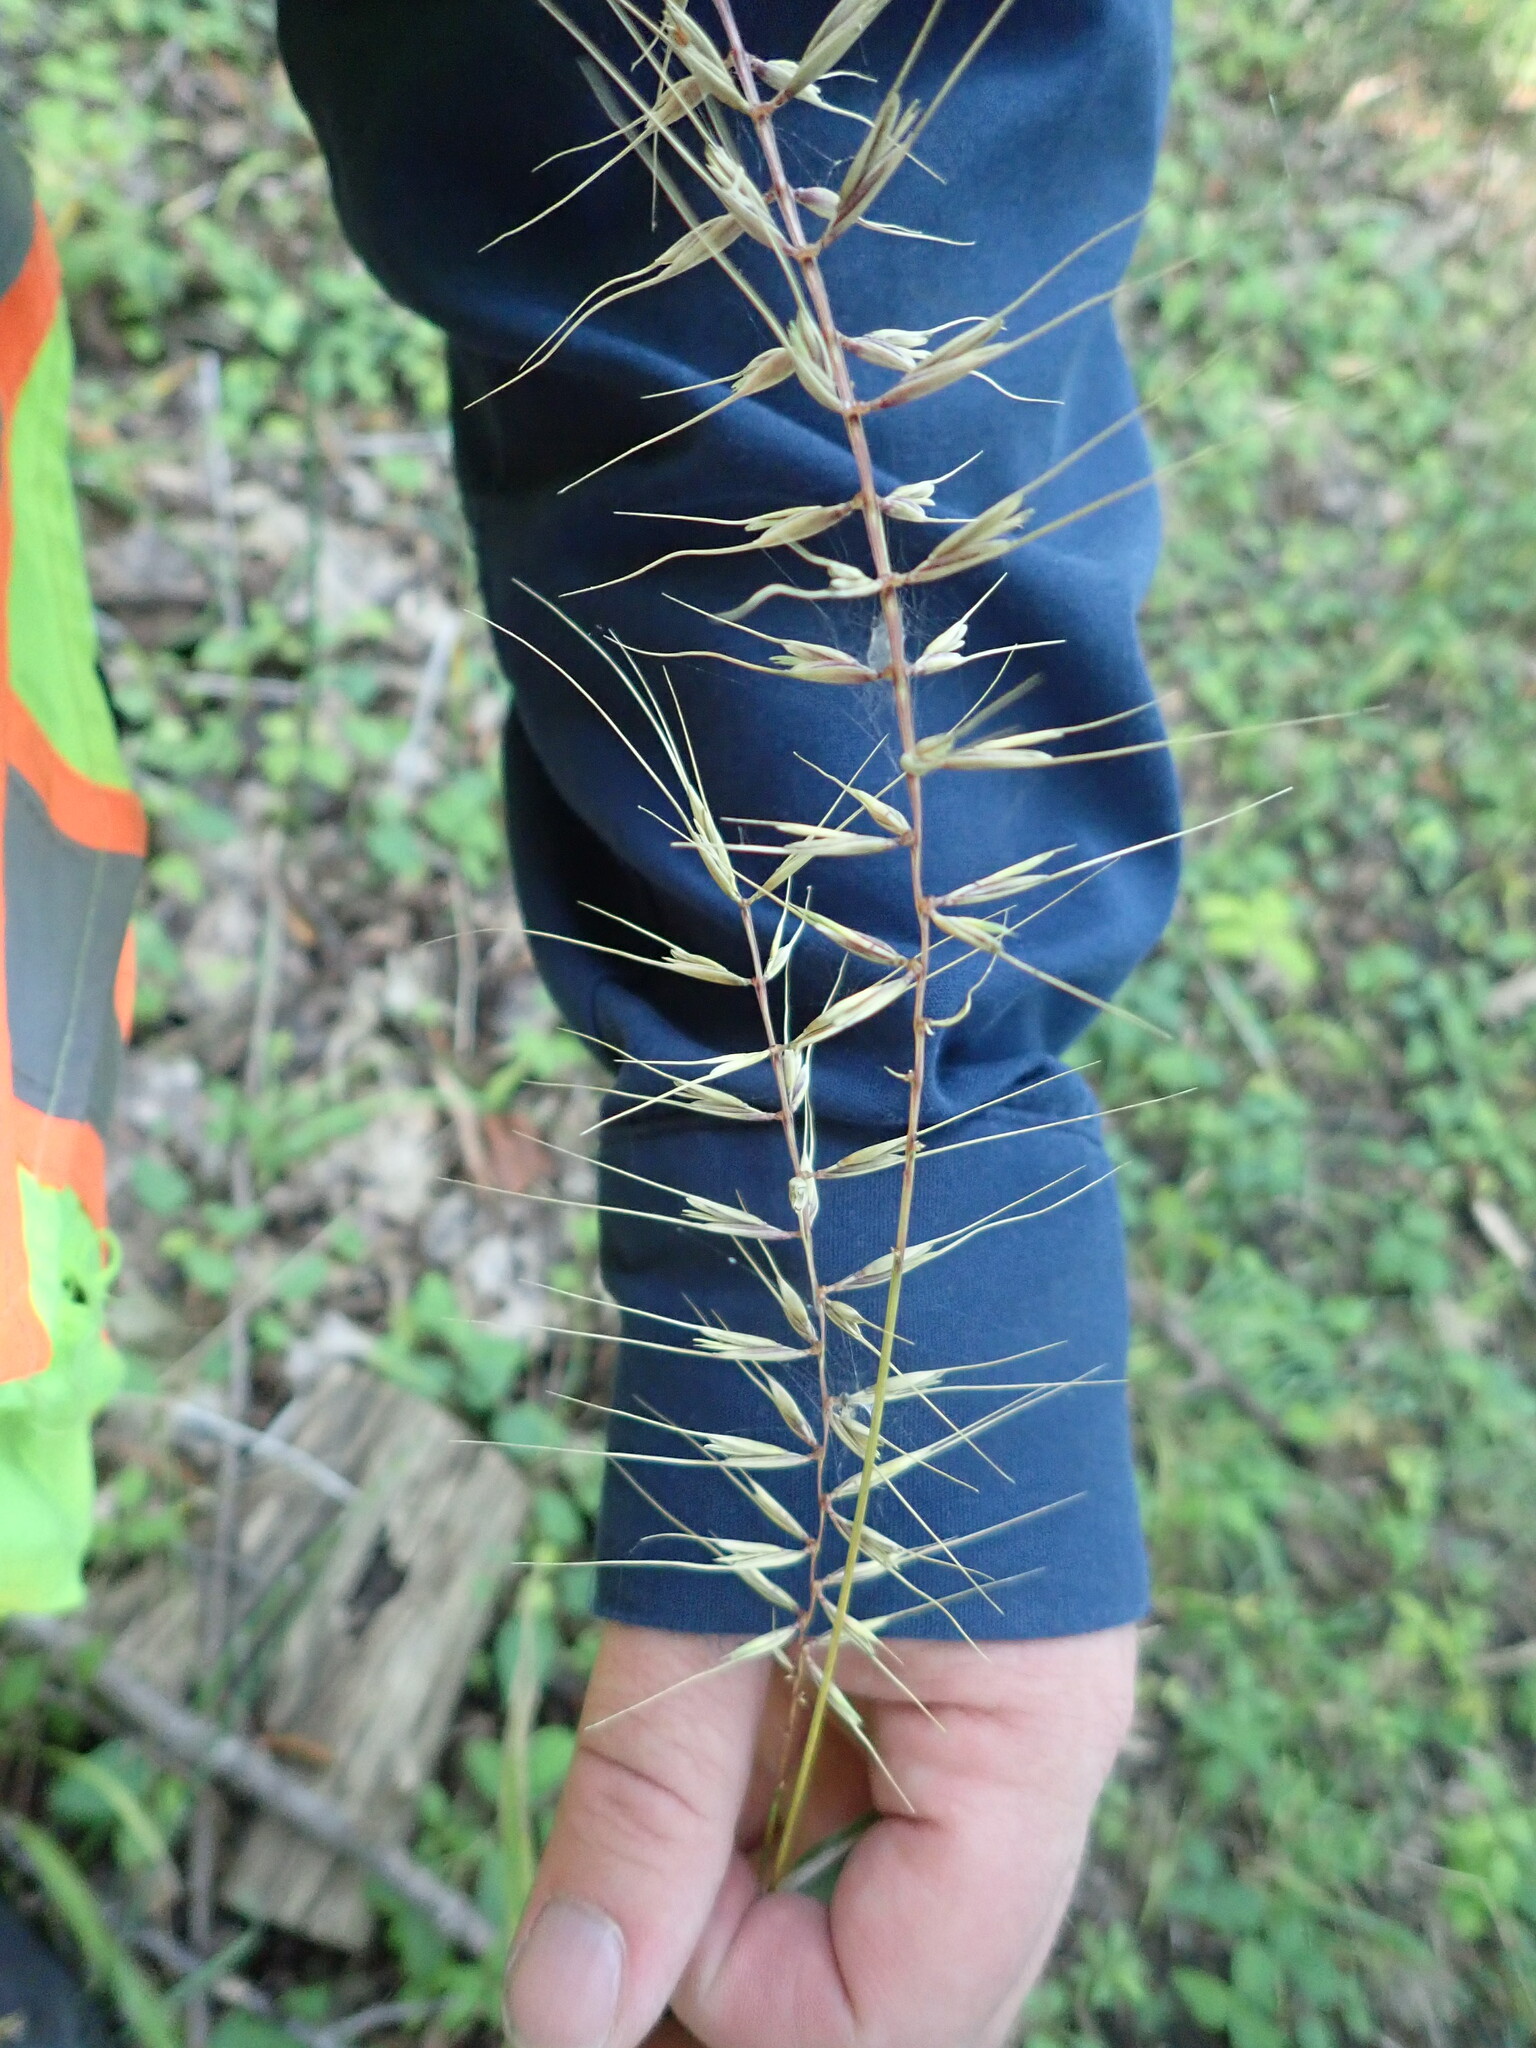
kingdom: Plantae
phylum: Tracheophyta
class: Liliopsida
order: Poales
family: Poaceae
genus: Elymus
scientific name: Elymus hystrix
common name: Bottlebrush grass
